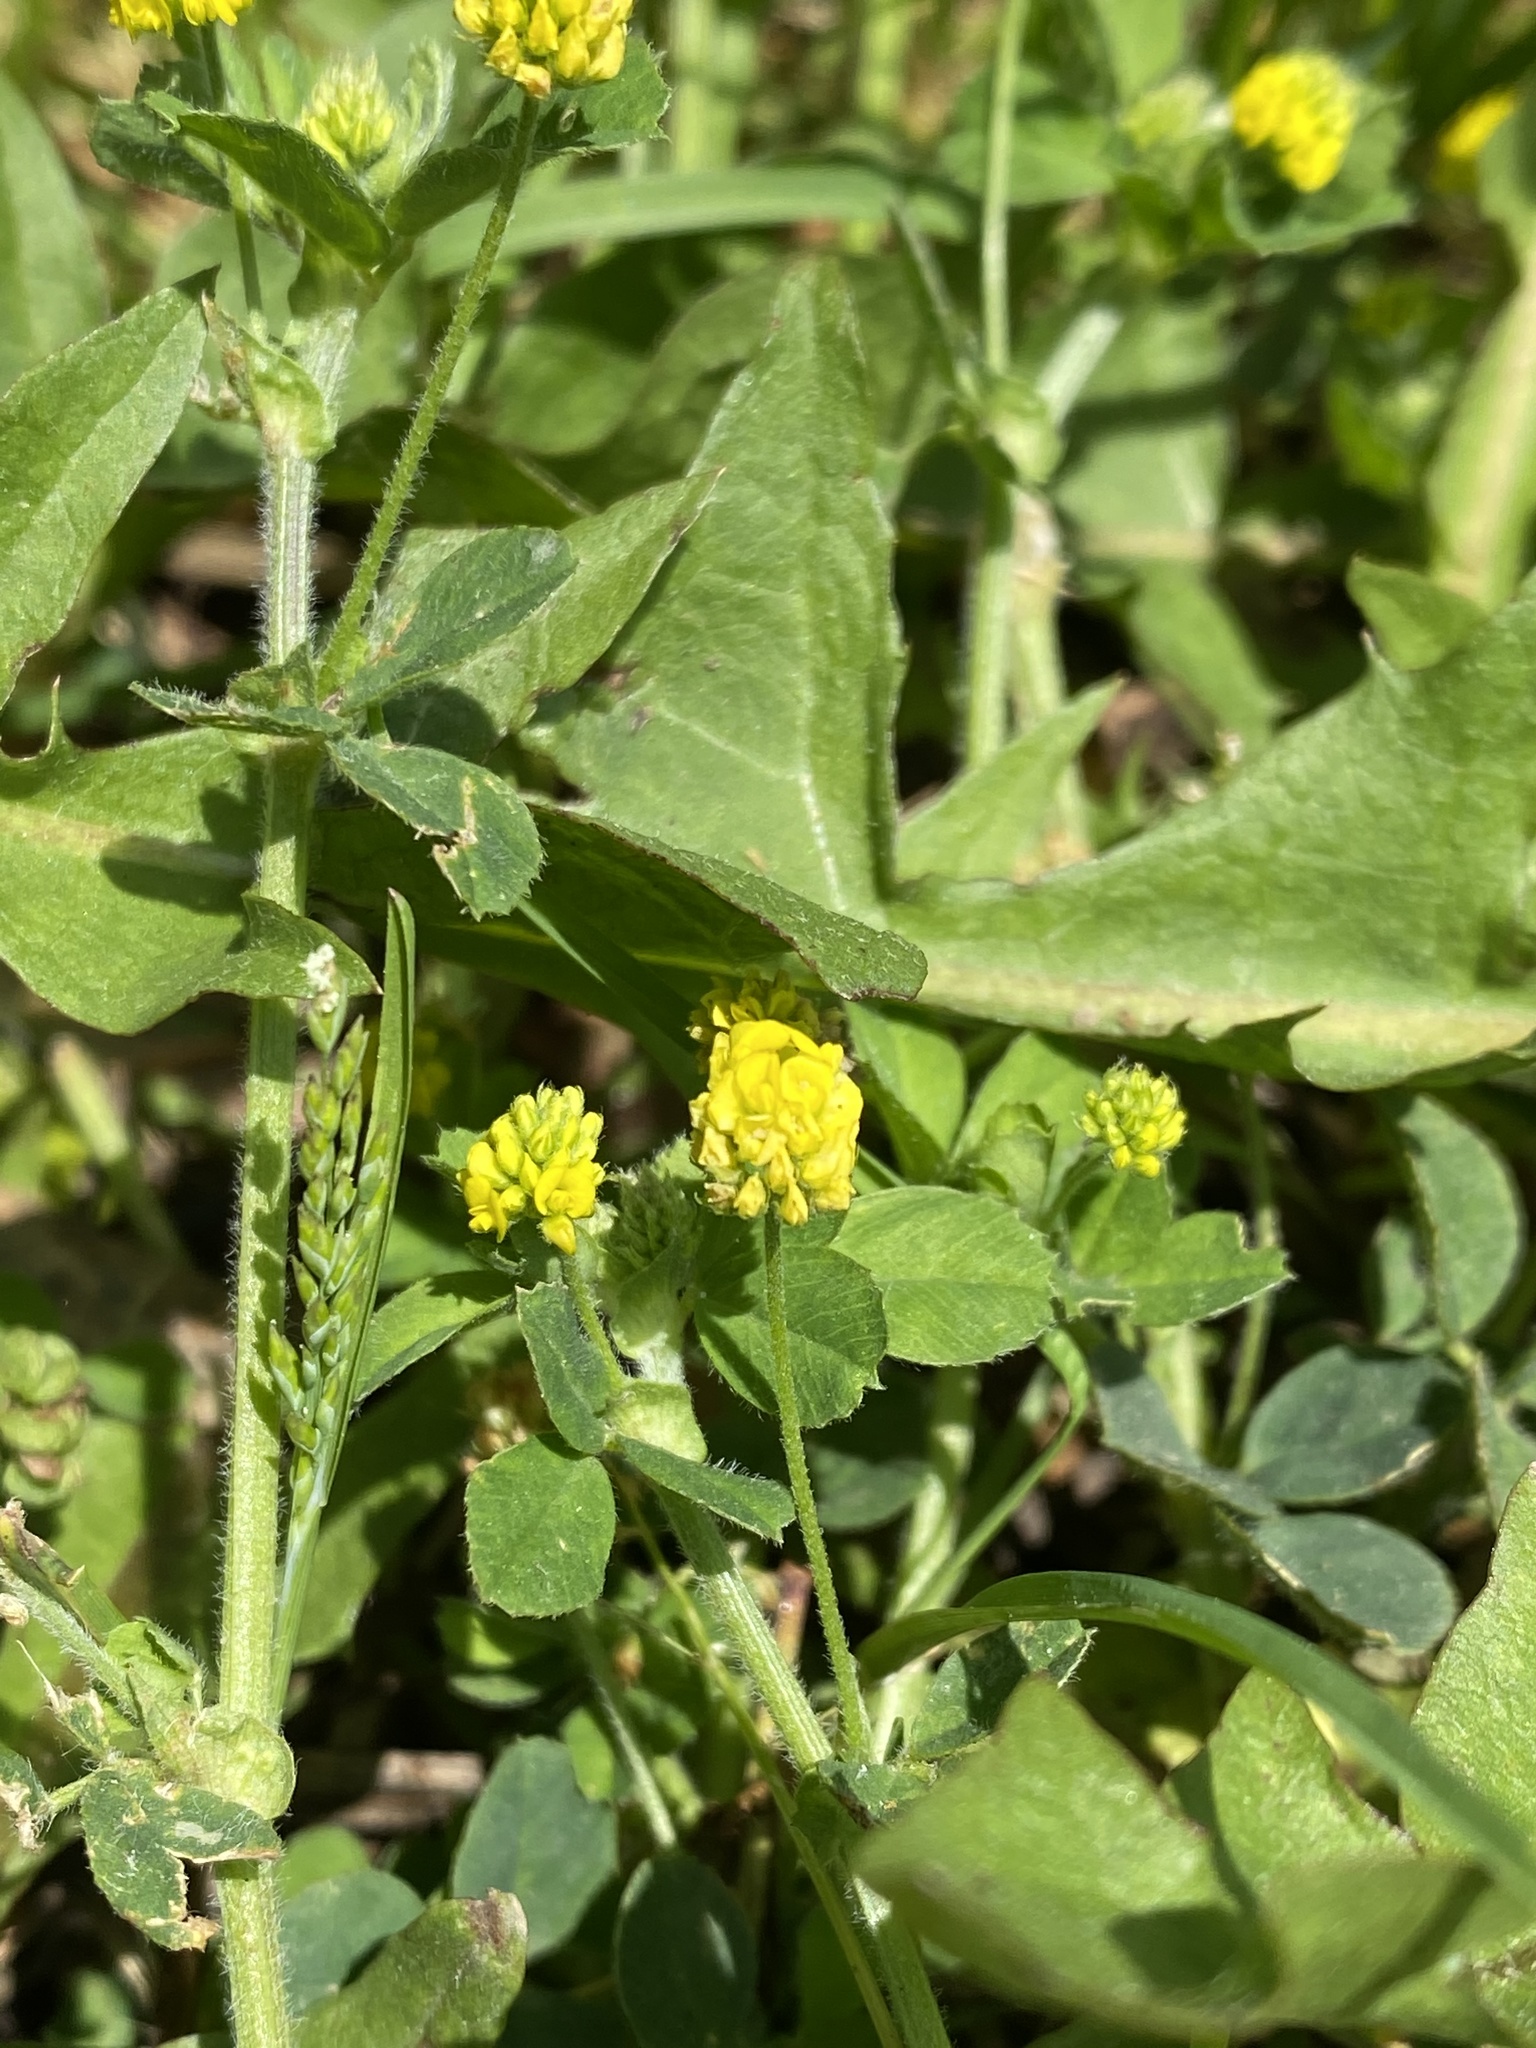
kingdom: Plantae
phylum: Tracheophyta
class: Magnoliopsida
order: Fabales
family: Fabaceae
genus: Medicago
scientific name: Medicago lupulina
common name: Black medick
